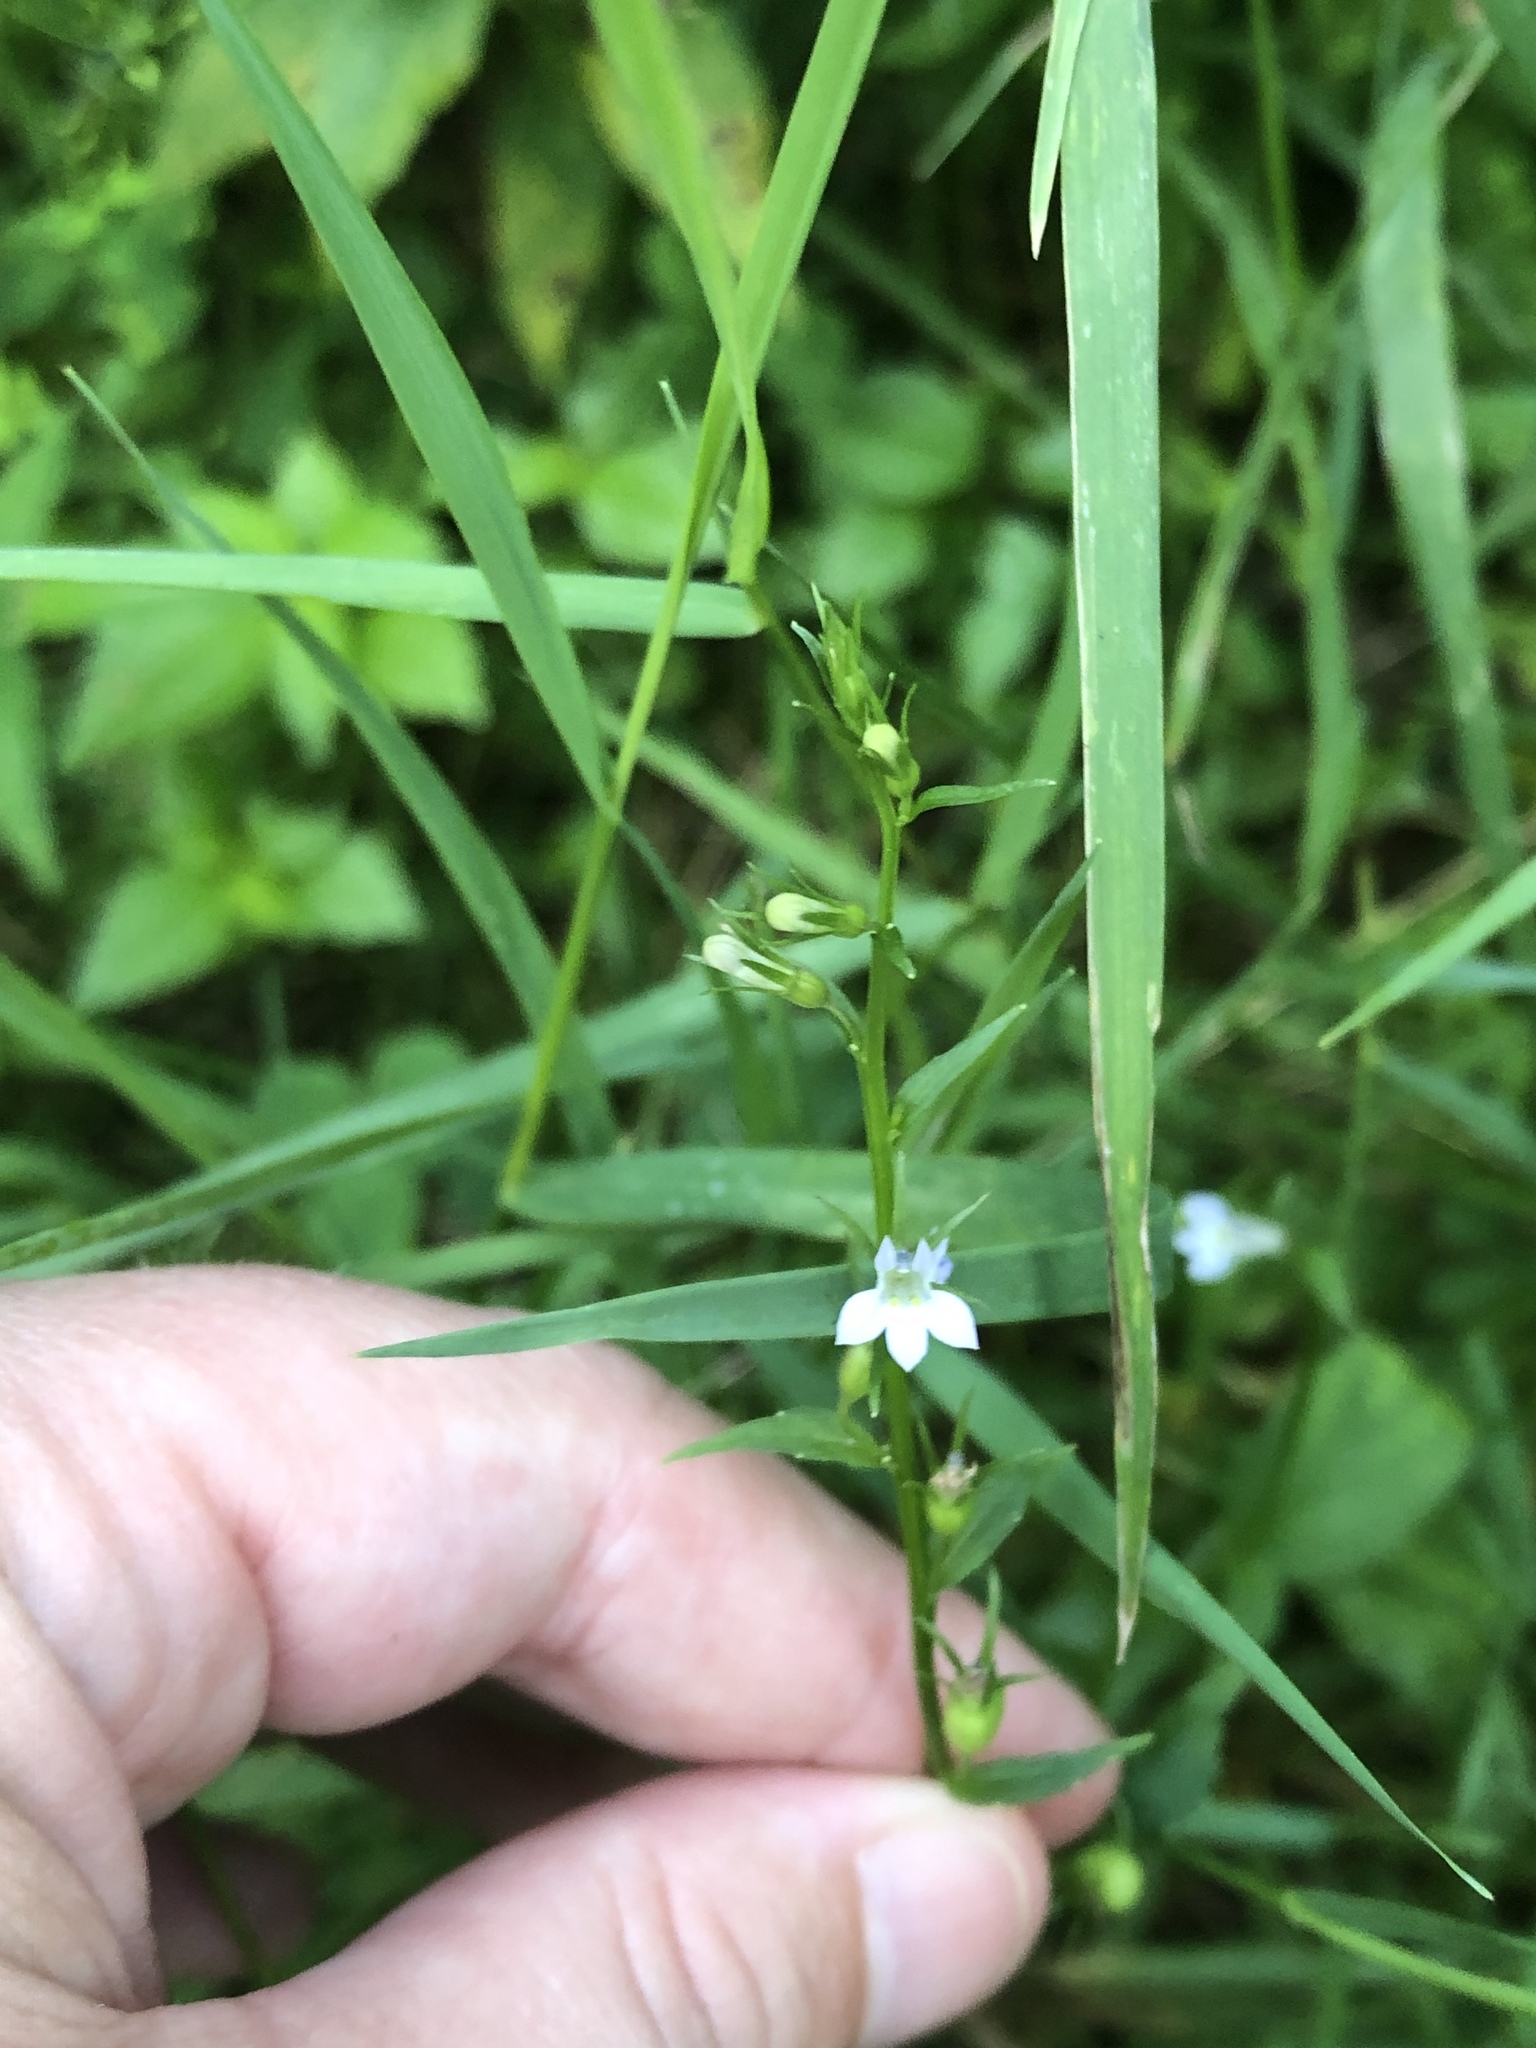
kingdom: Plantae
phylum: Tracheophyta
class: Magnoliopsida
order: Asterales
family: Campanulaceae
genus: Lobelia
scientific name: Lobelia inflata
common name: Indian tobacco
